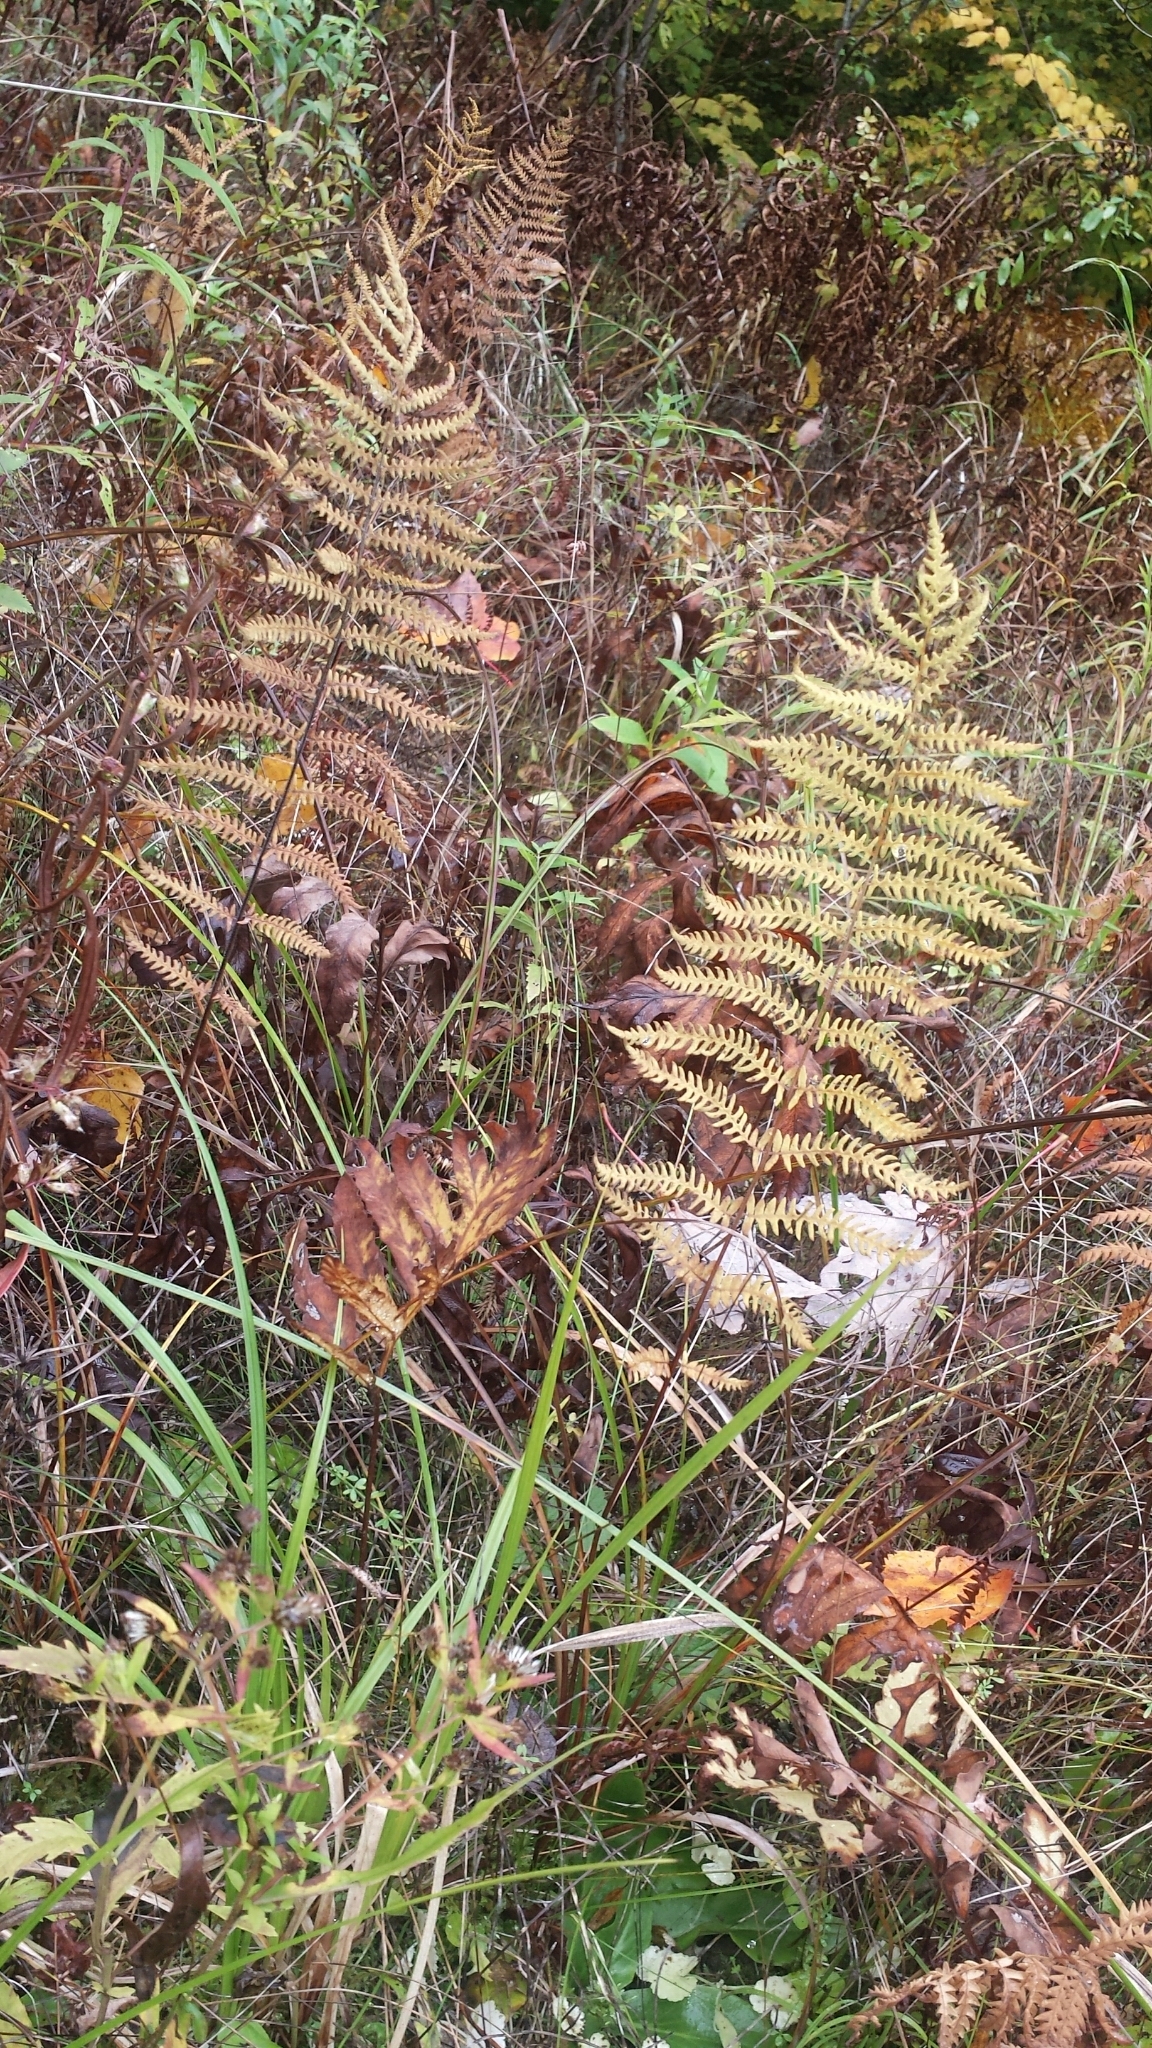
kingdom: Plantae
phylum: Tracheophyta
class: Polypodiopsida
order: Polypodiales
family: Thelypteridaceae
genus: Thelypteris
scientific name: Thelypteris palustris
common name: Marsh fern
